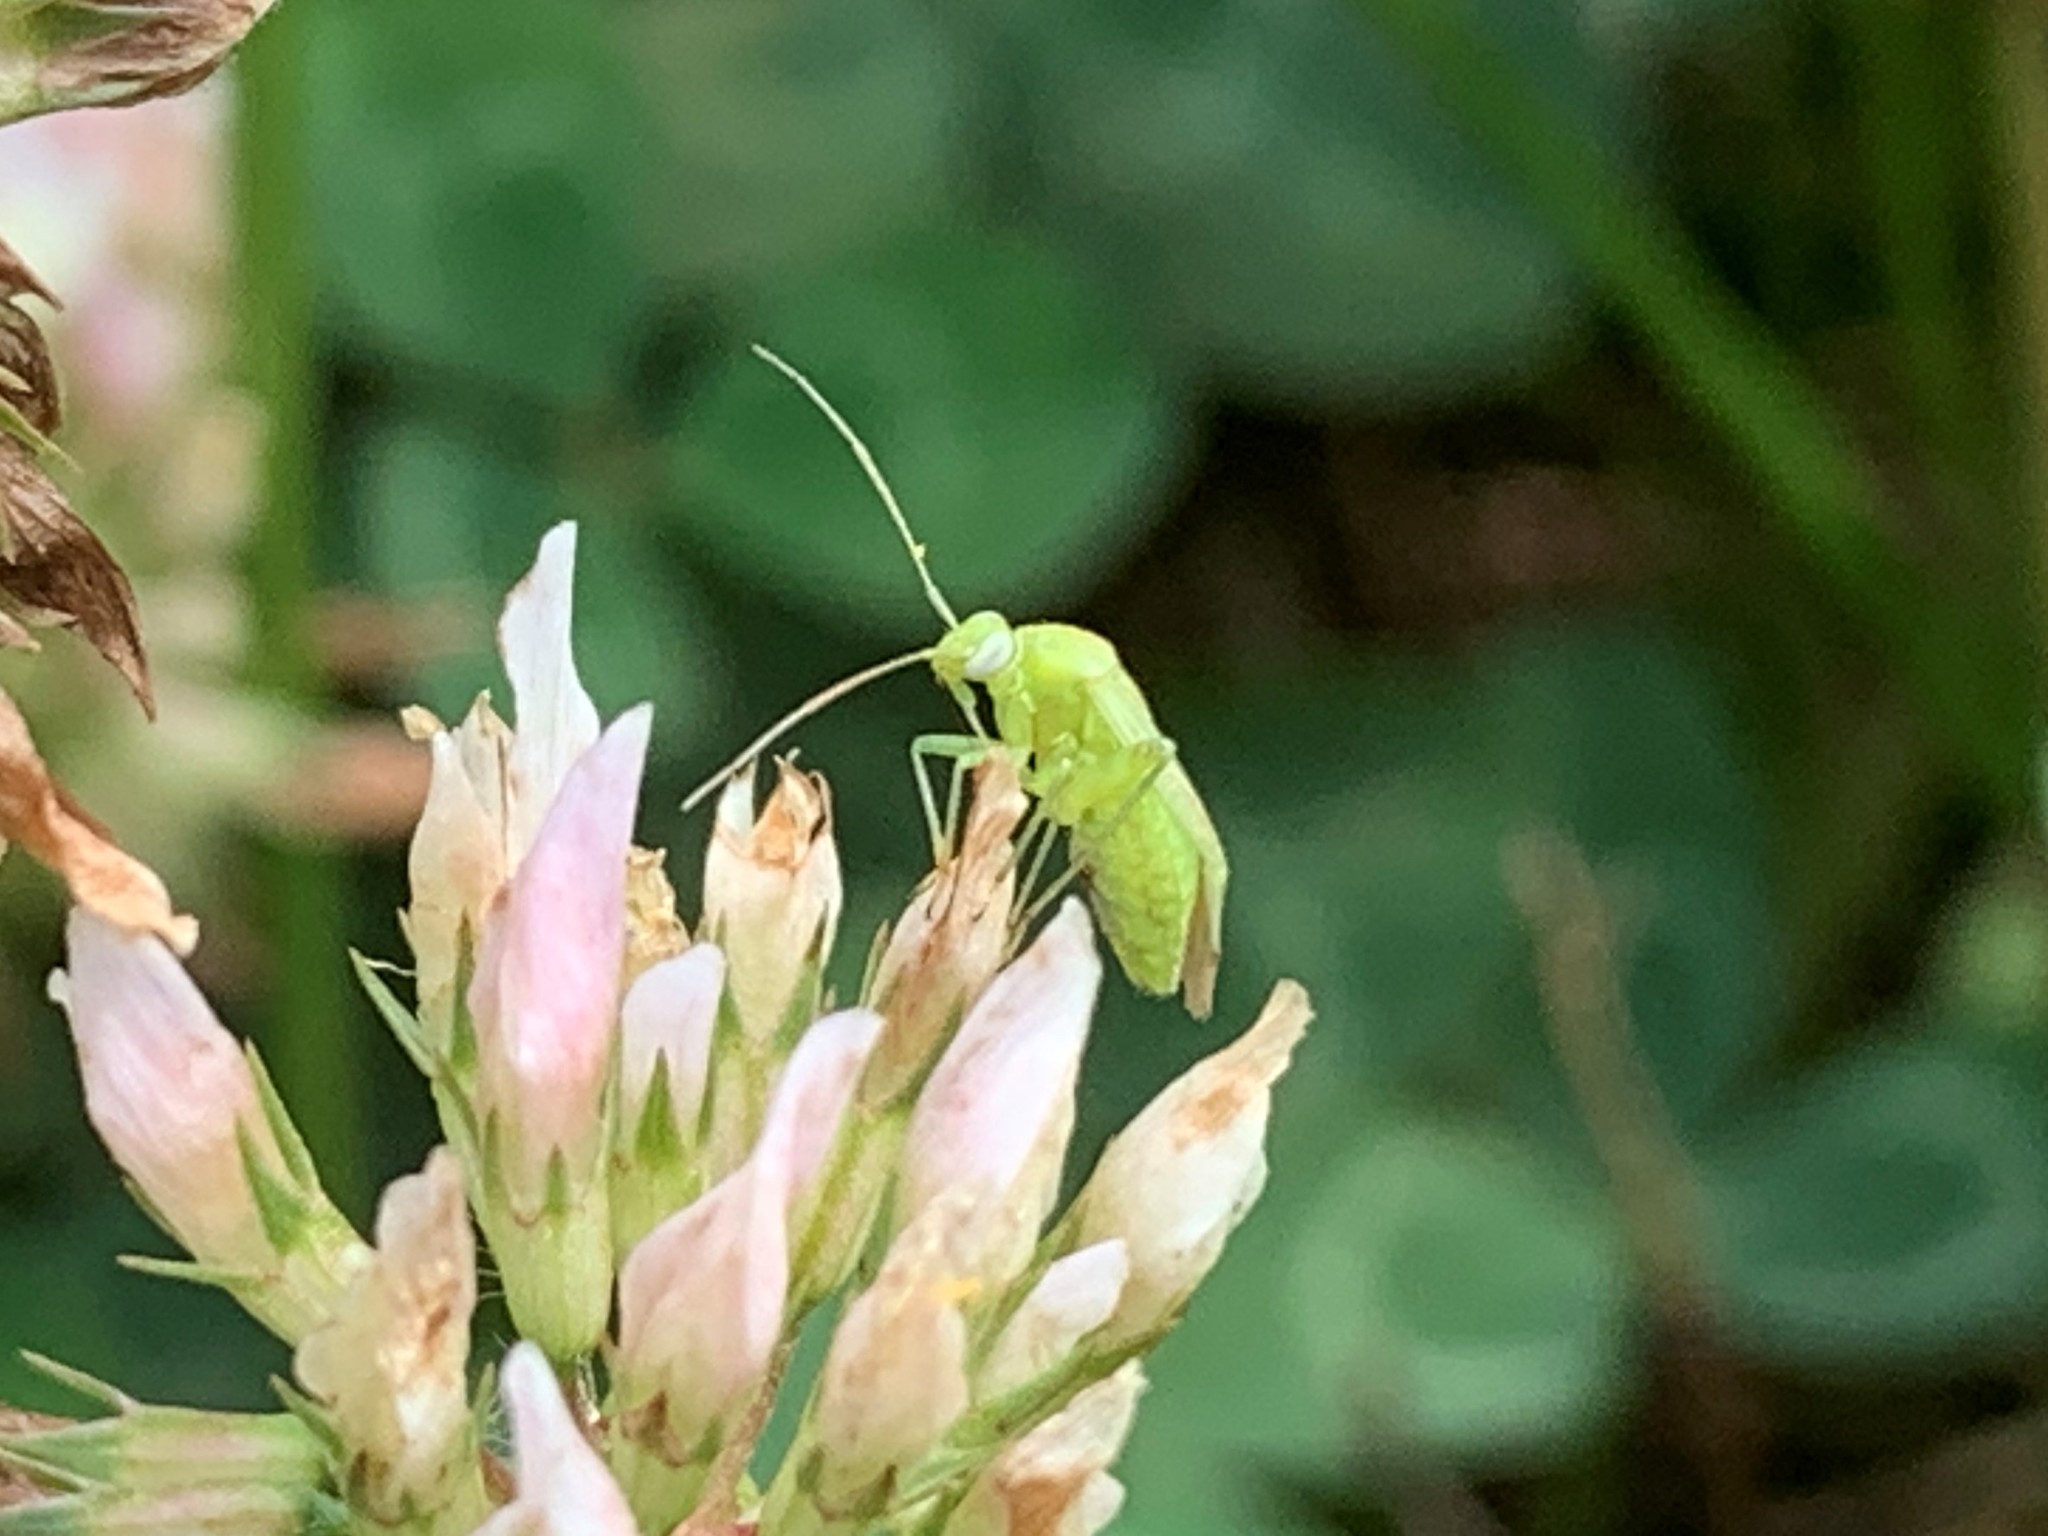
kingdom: Animalia
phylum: Arthropoda
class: Insecta
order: Hemiptera
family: Miridae
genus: Taylorilygus
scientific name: Taylorilygus apicalis
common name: Plant bug
